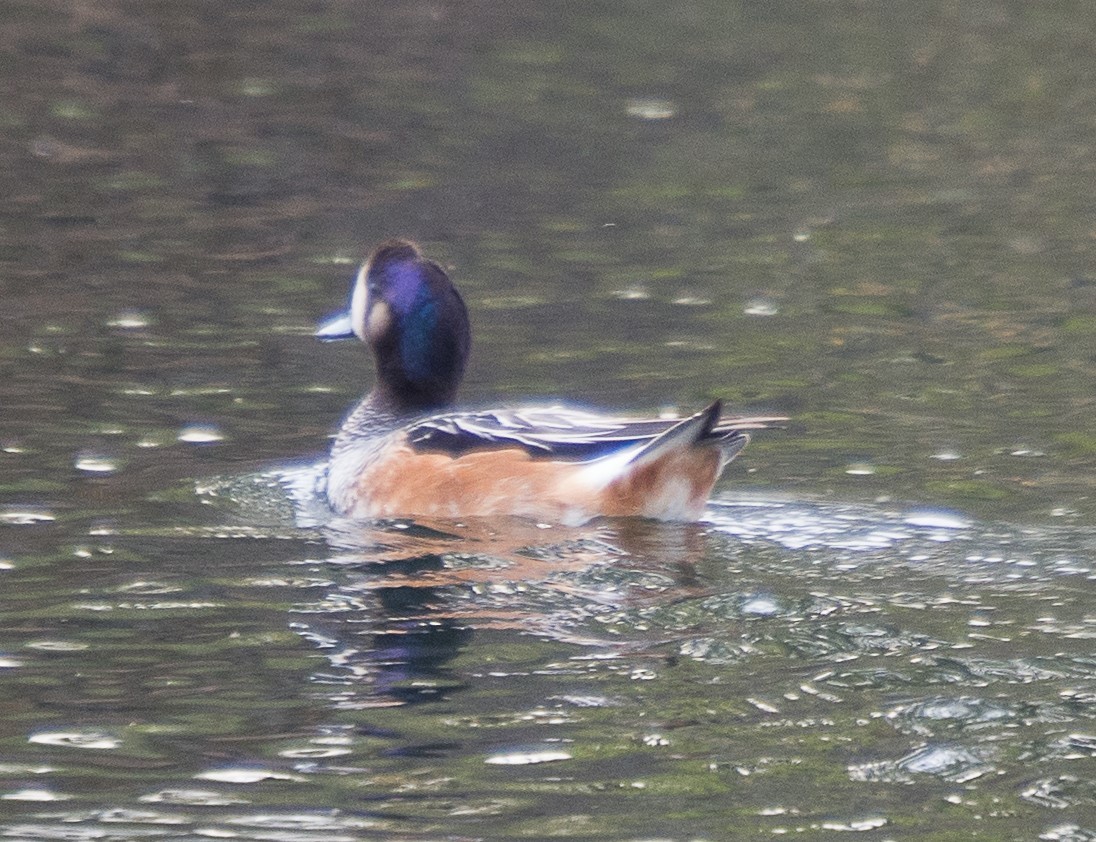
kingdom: Animalia
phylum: Chordata
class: Aves
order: Anseriformes
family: Anatidae
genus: Mareca
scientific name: Mareca sibilatrix
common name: Chiloe wigeon
